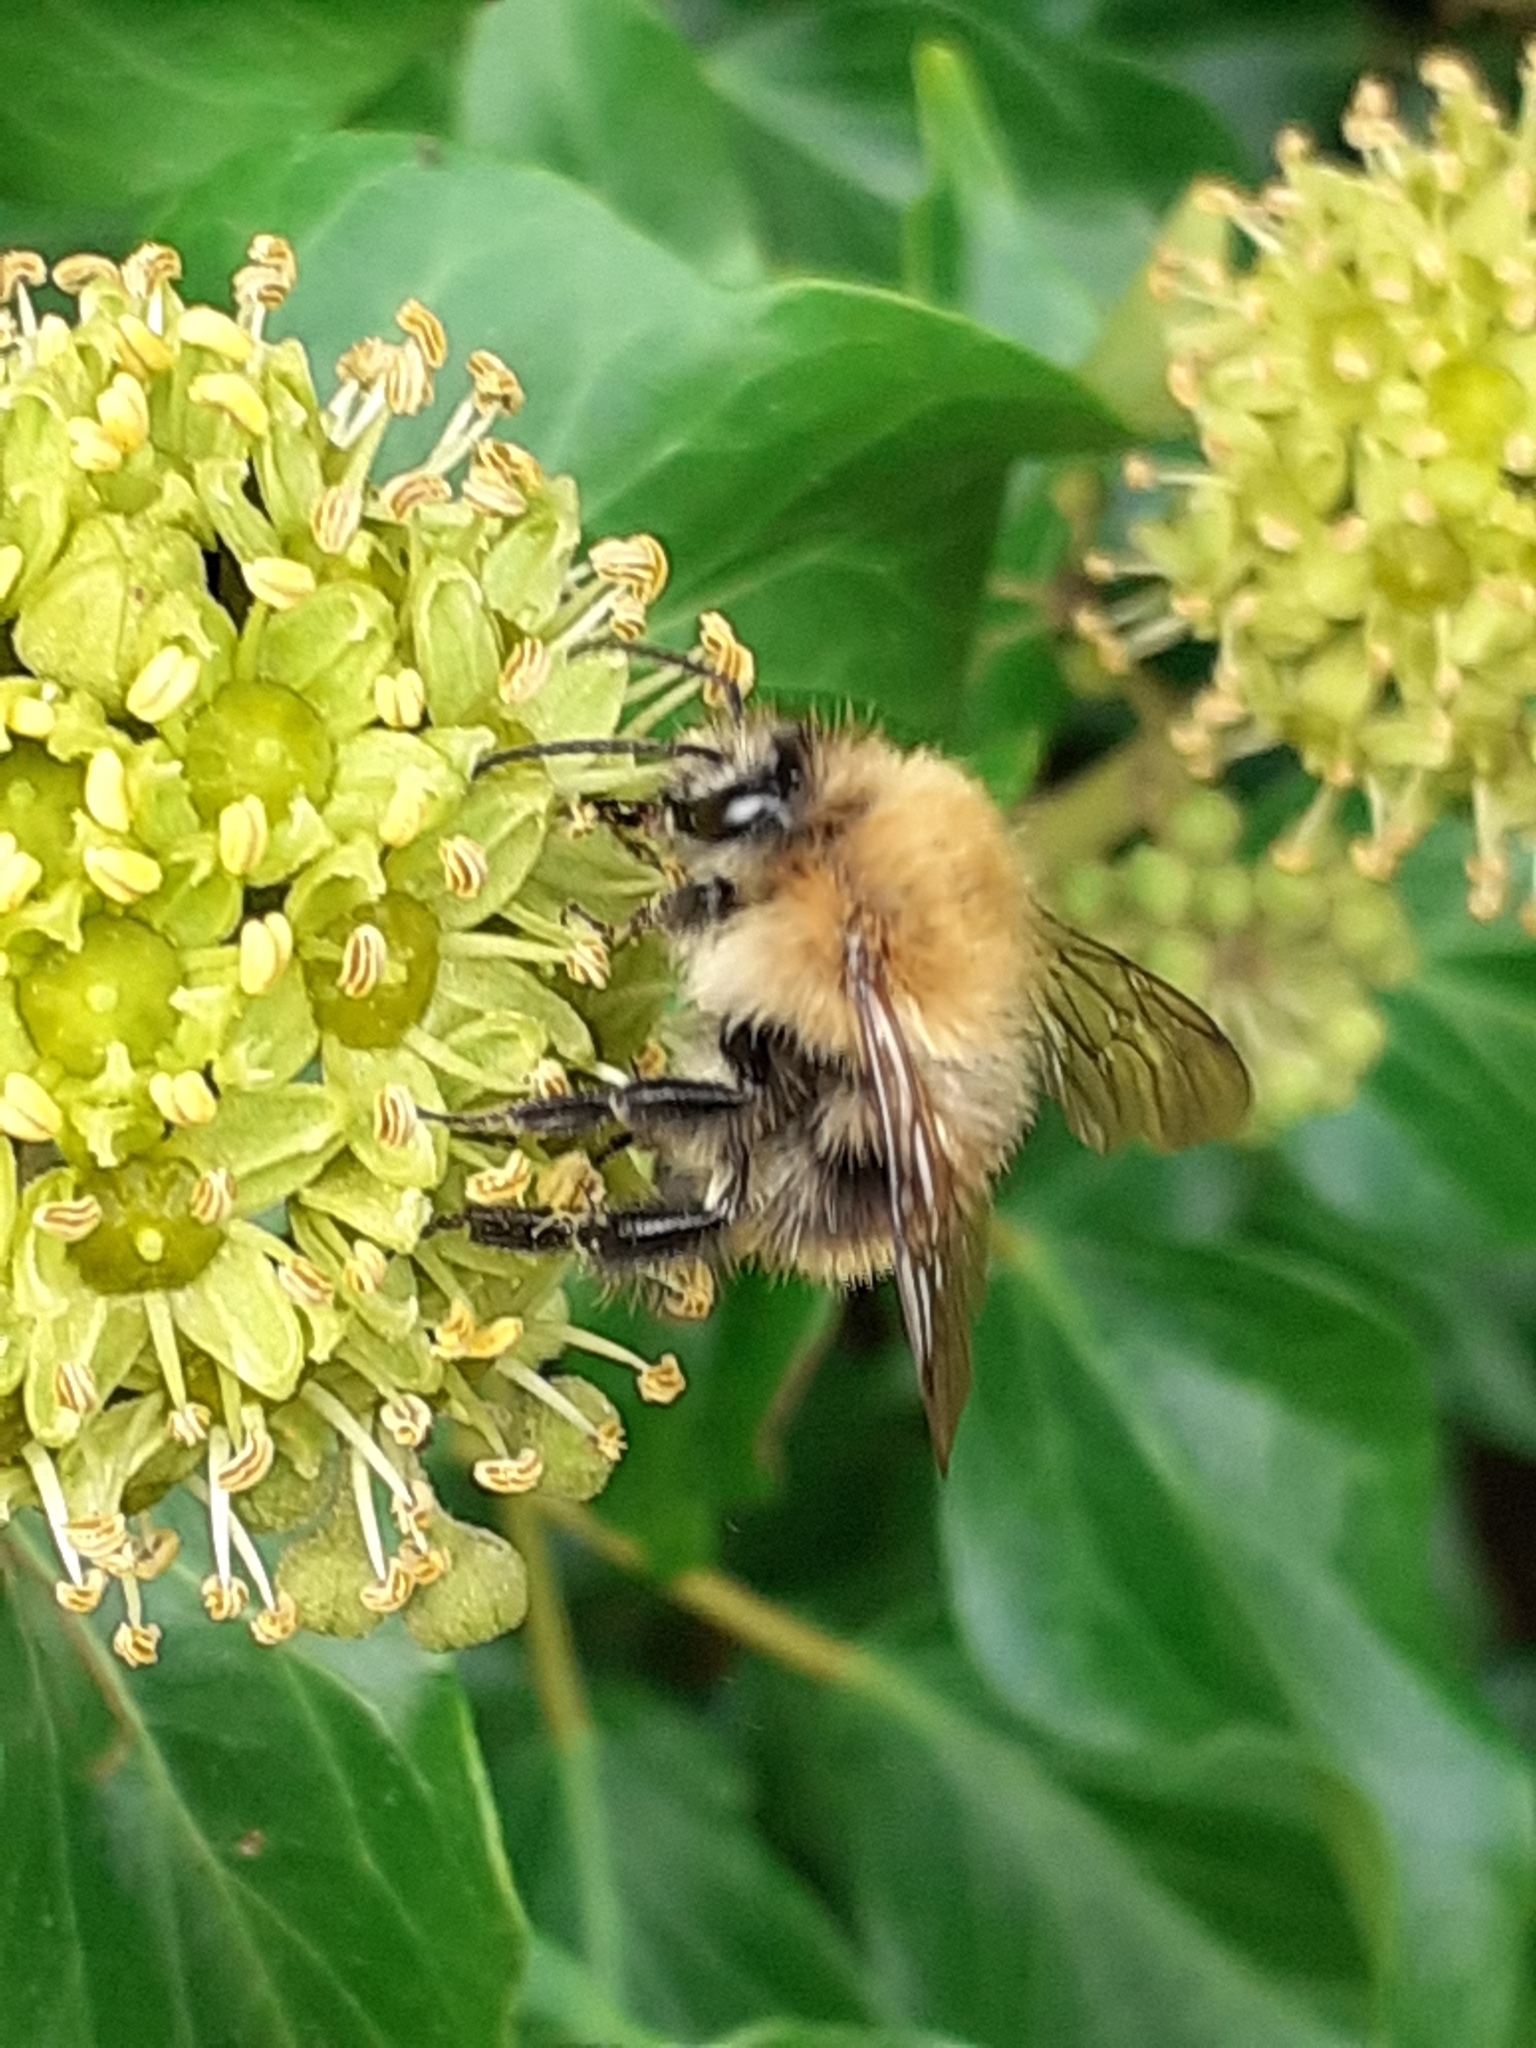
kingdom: Animalia
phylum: Arthropoda
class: Insecta
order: Hymenoptera
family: Apidae
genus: Bombus
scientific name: Bombus pascuorum
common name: Common carder bee
